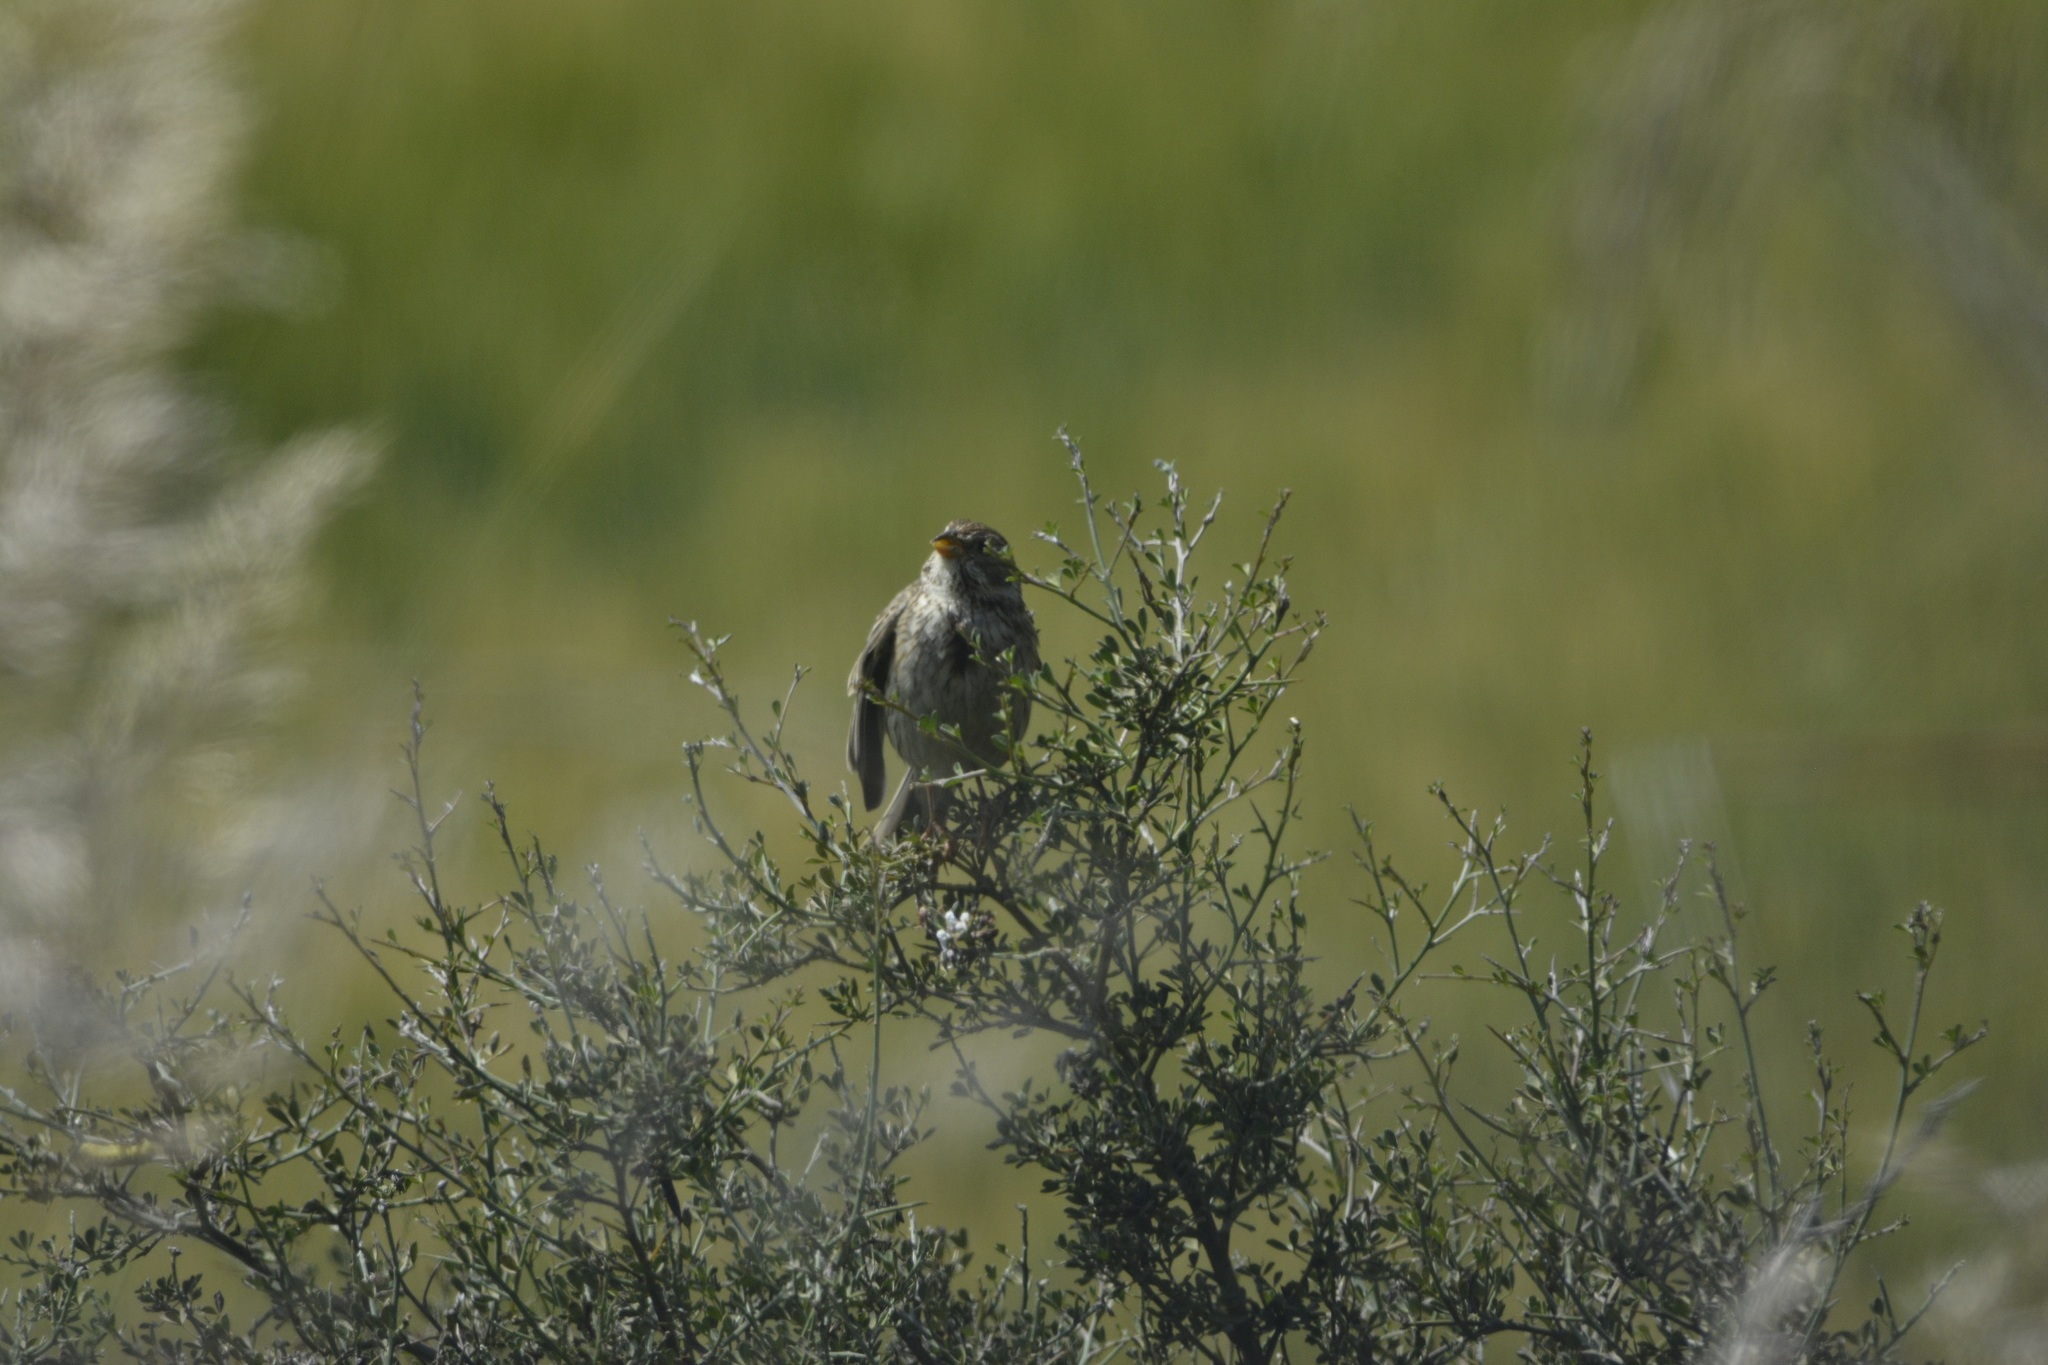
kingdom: Animalia
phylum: Chordata
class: Aves
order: Passeriformes
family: Emberizidae
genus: Emberiza
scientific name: Emberiza calandra
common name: Corn bunting
